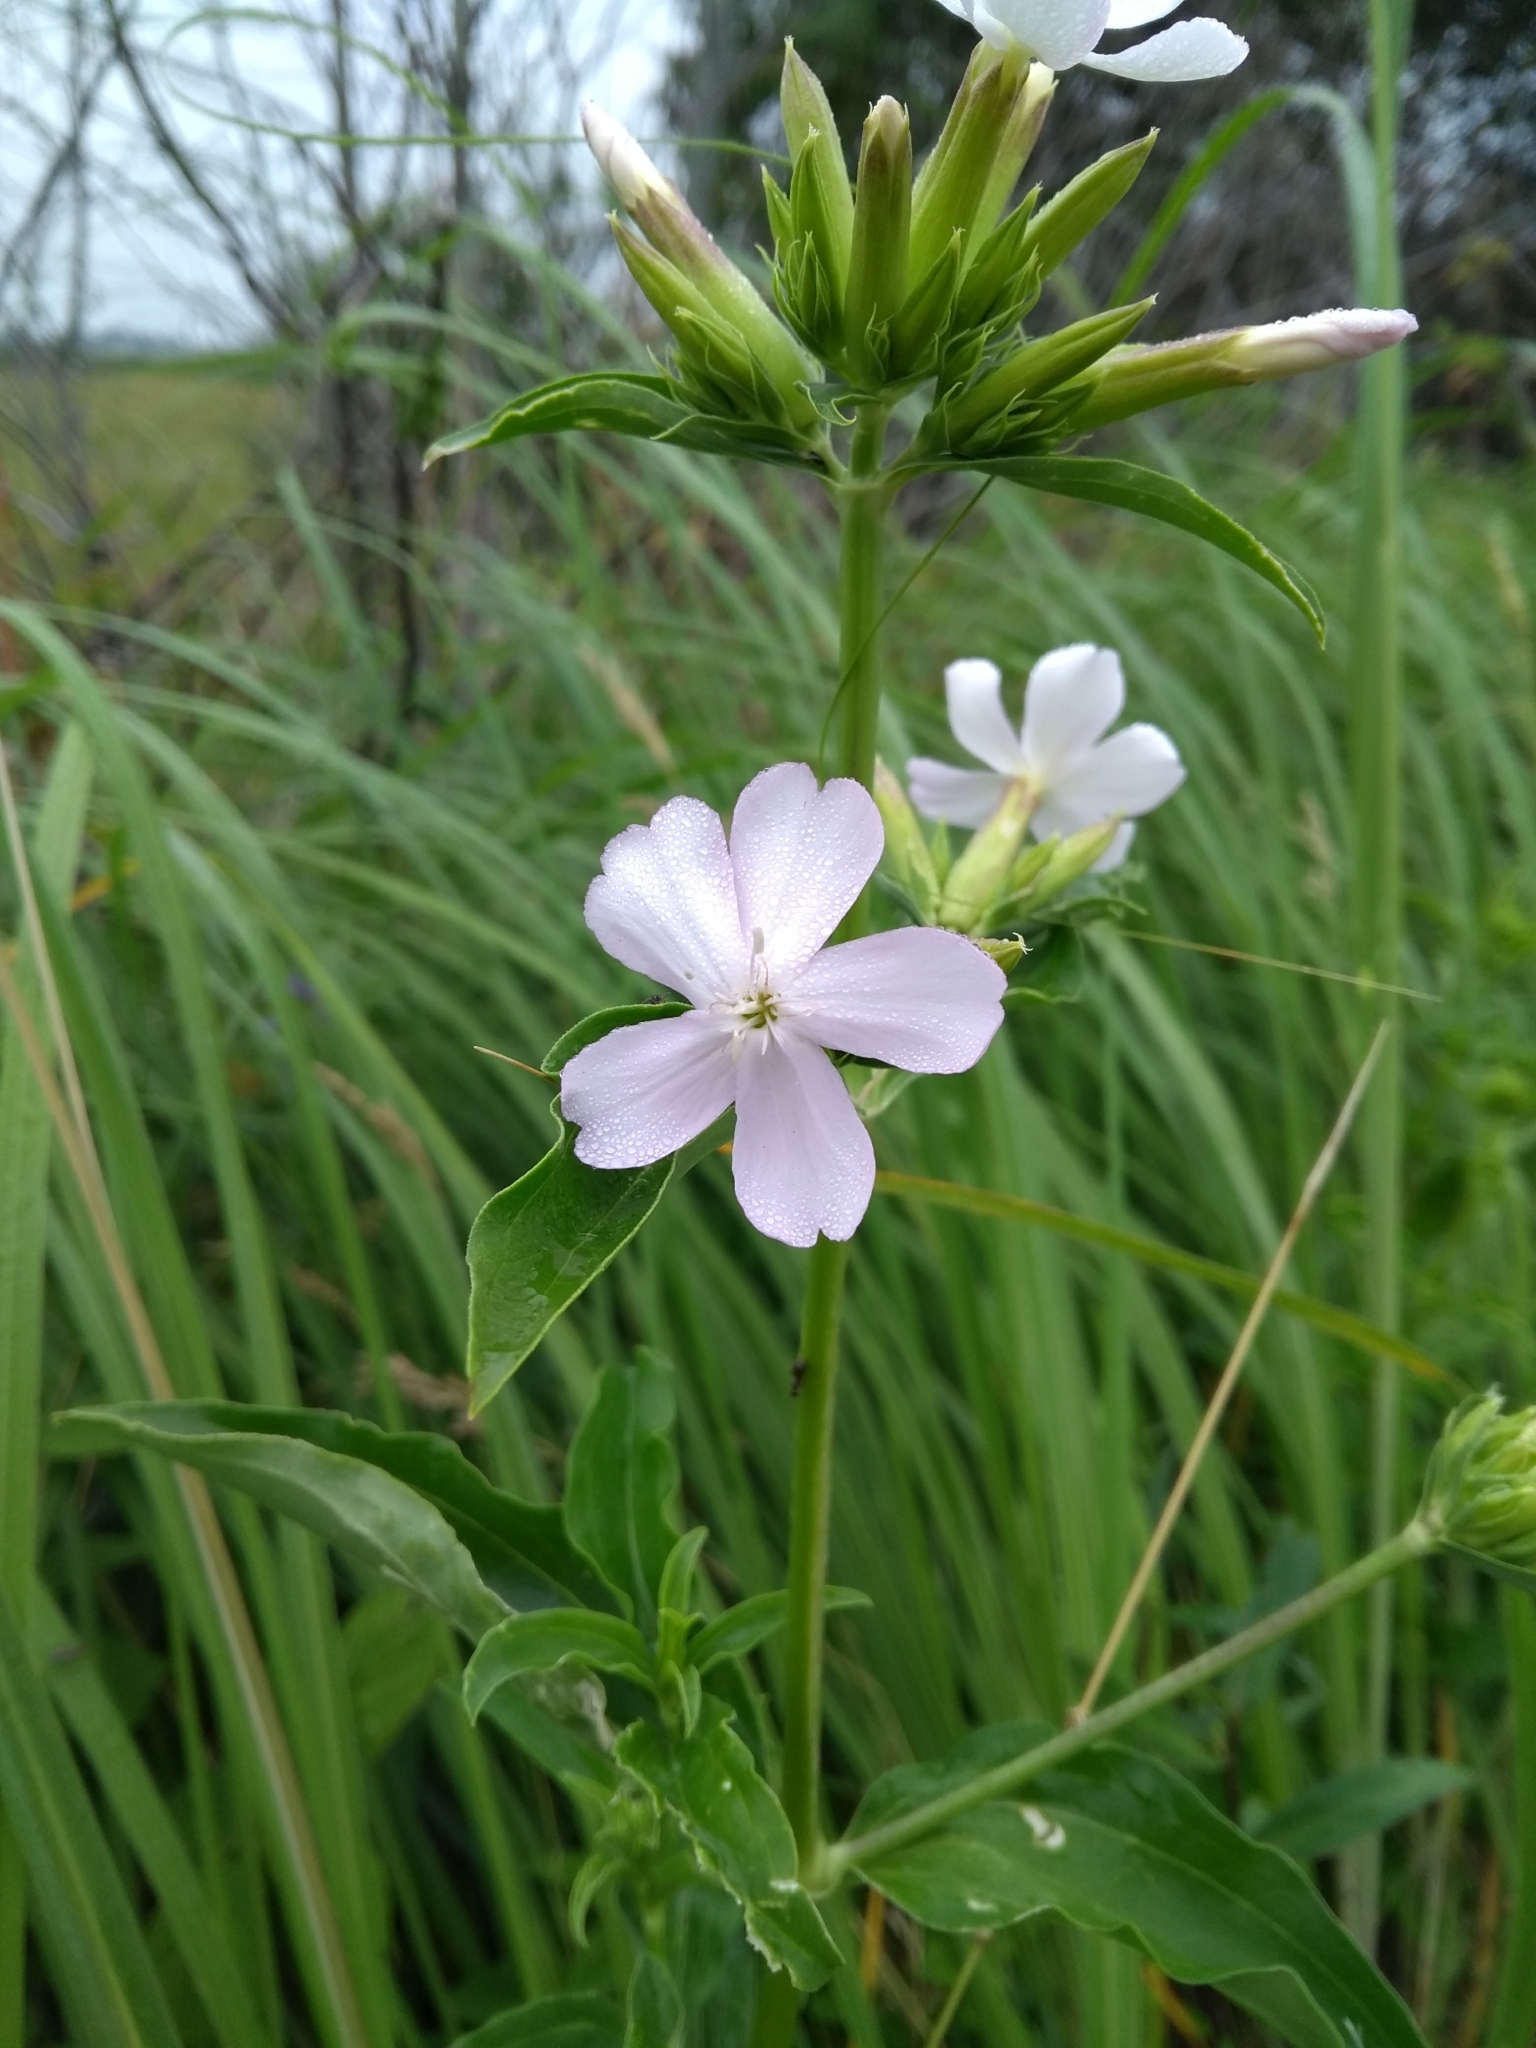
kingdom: Plantae
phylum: Tracheophyta
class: Magnoliopsida
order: Caryophyllales
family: Caryophyllaceae
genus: Saponaria
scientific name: Saponaria officinalis
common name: Soapwort
